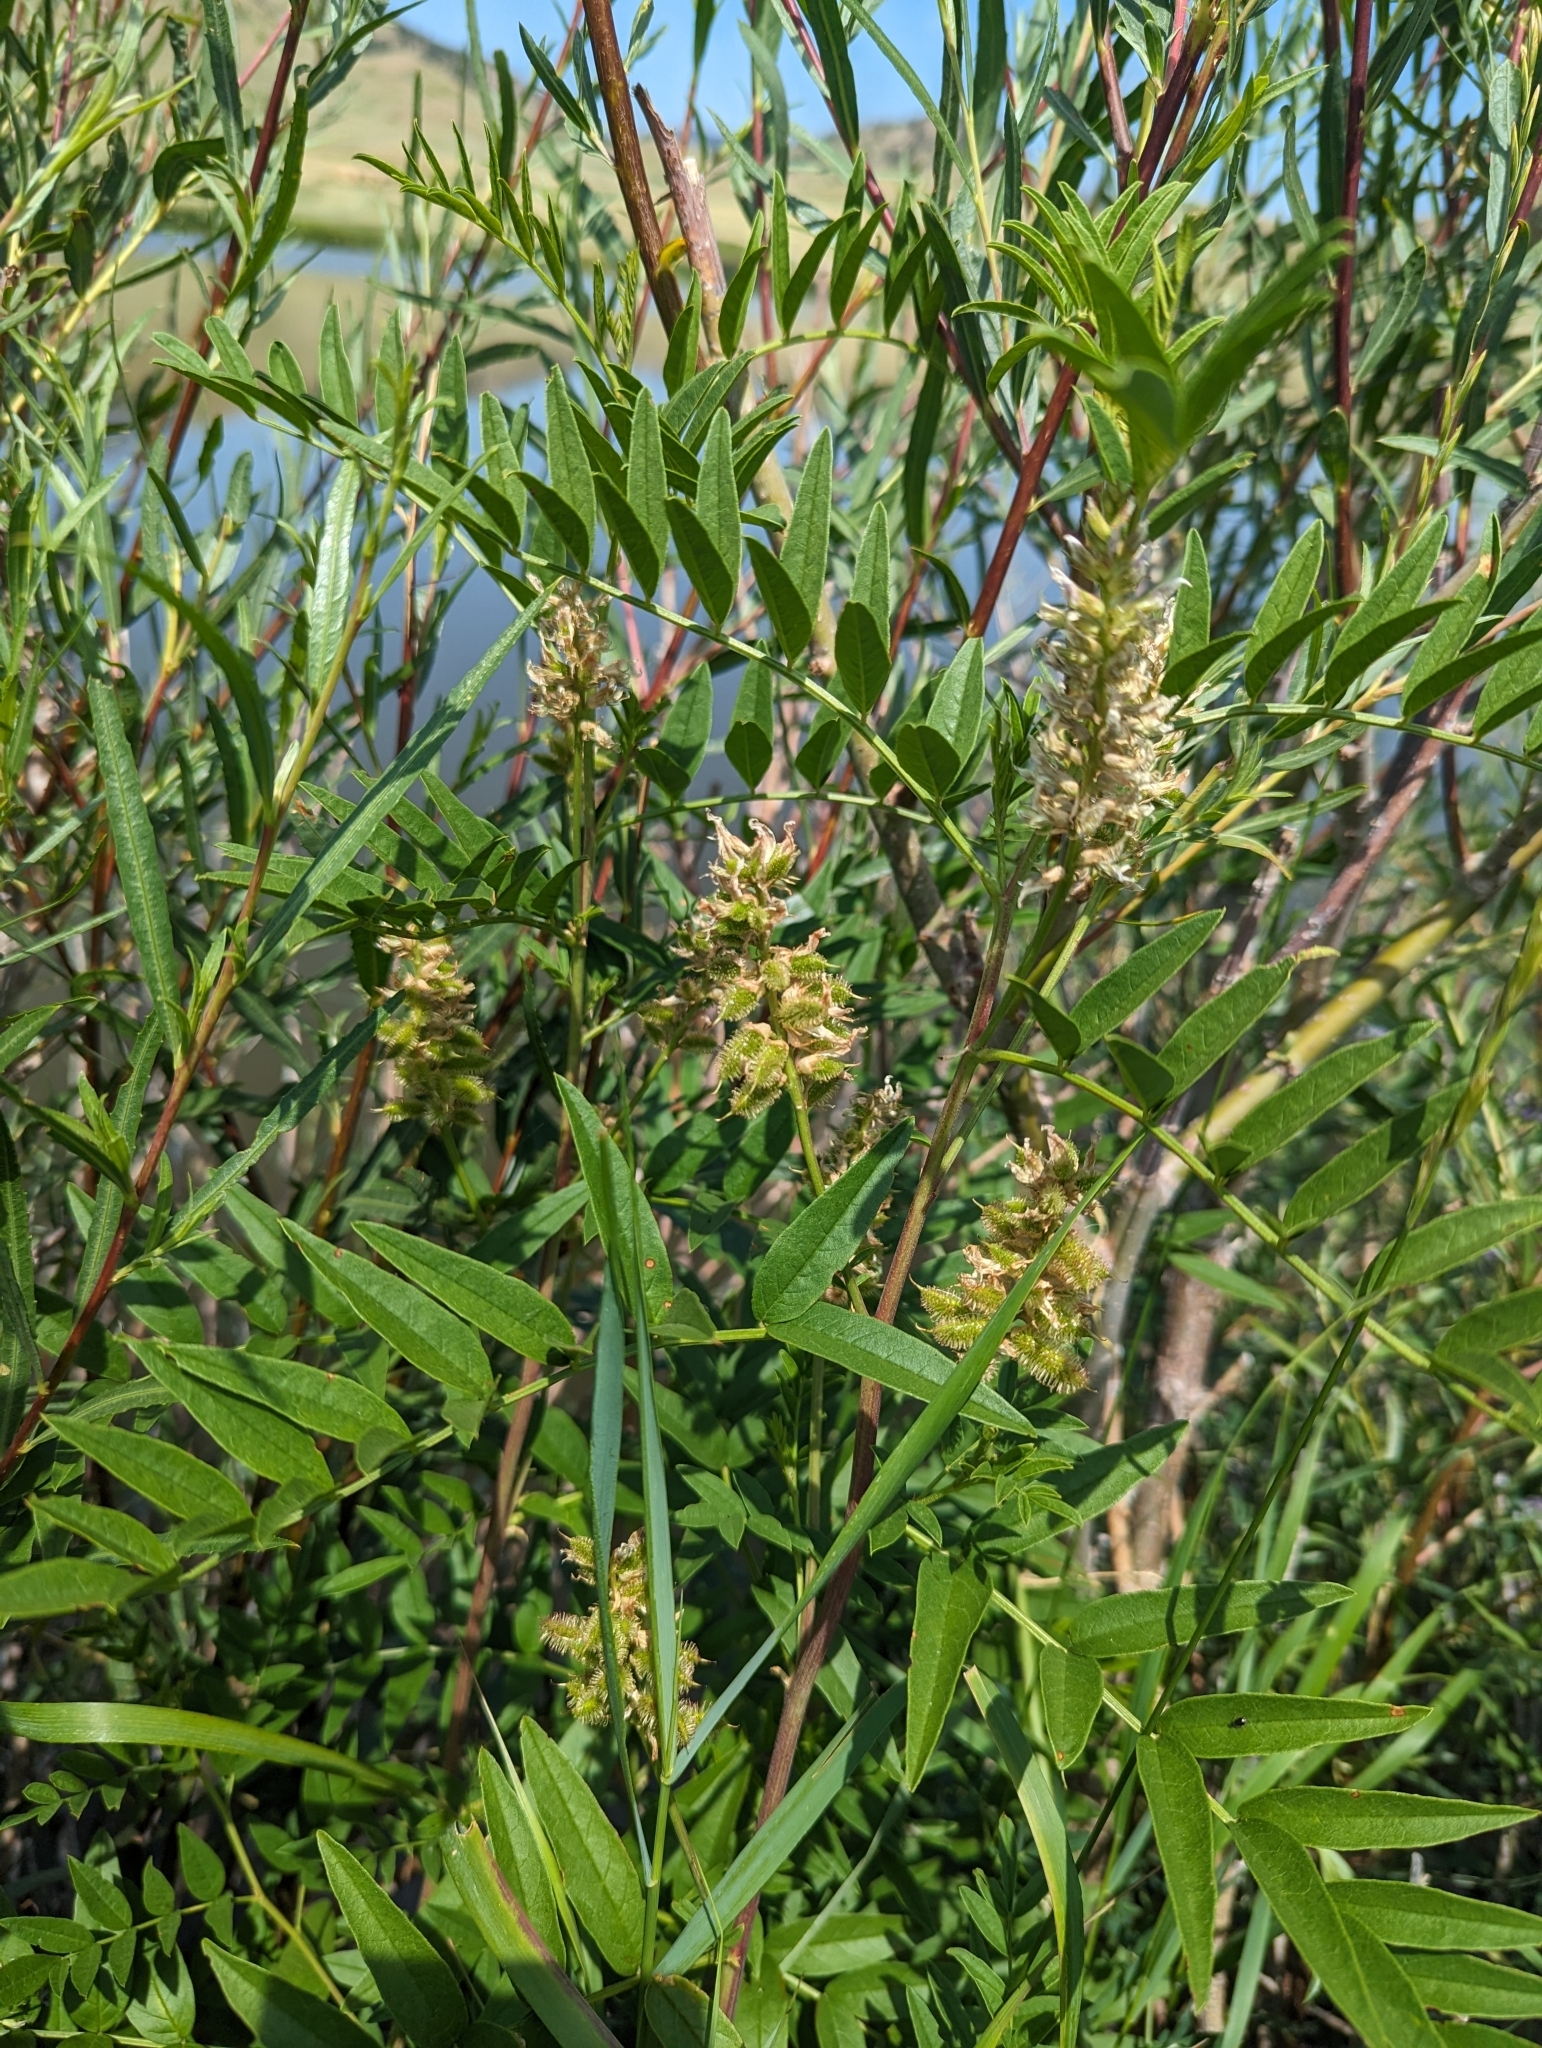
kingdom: Plantae
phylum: Tracheophyta
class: Magnoliopsida
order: Fabales
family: Fabaceae
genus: Glycyrrhiza
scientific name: Glycyrrhiza lepidota
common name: American liquorice
